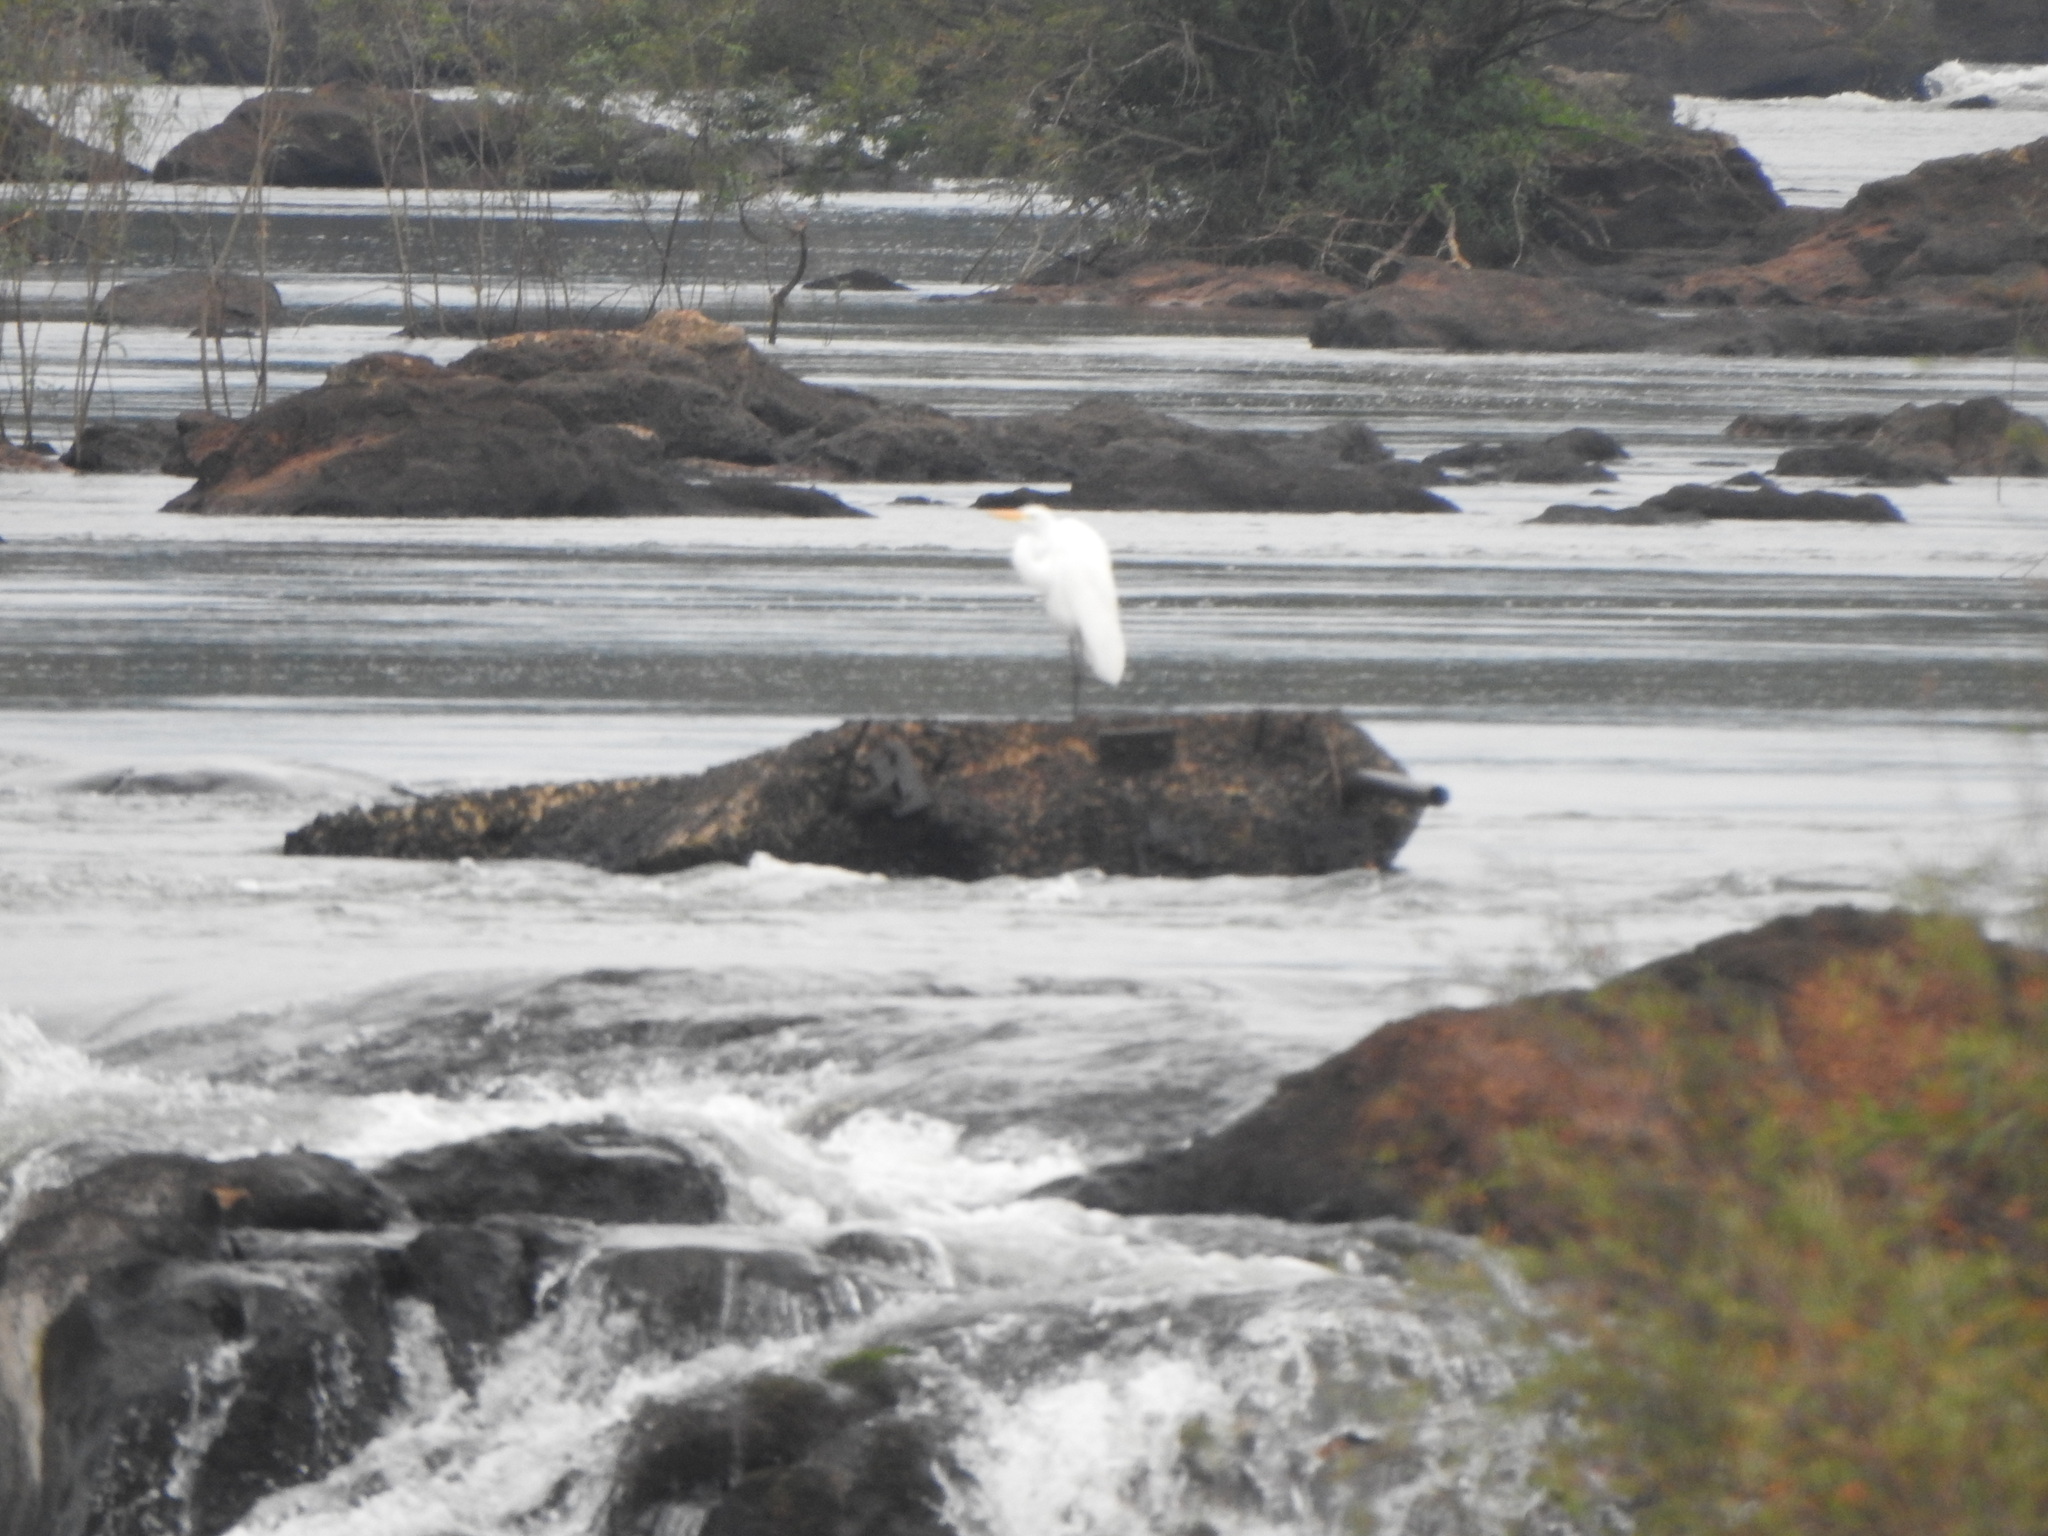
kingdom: Animalia
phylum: Chordata
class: Aves
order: Pelecaniformes
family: Ardeidae
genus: Ardea
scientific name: Ardea alba
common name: Great egret
